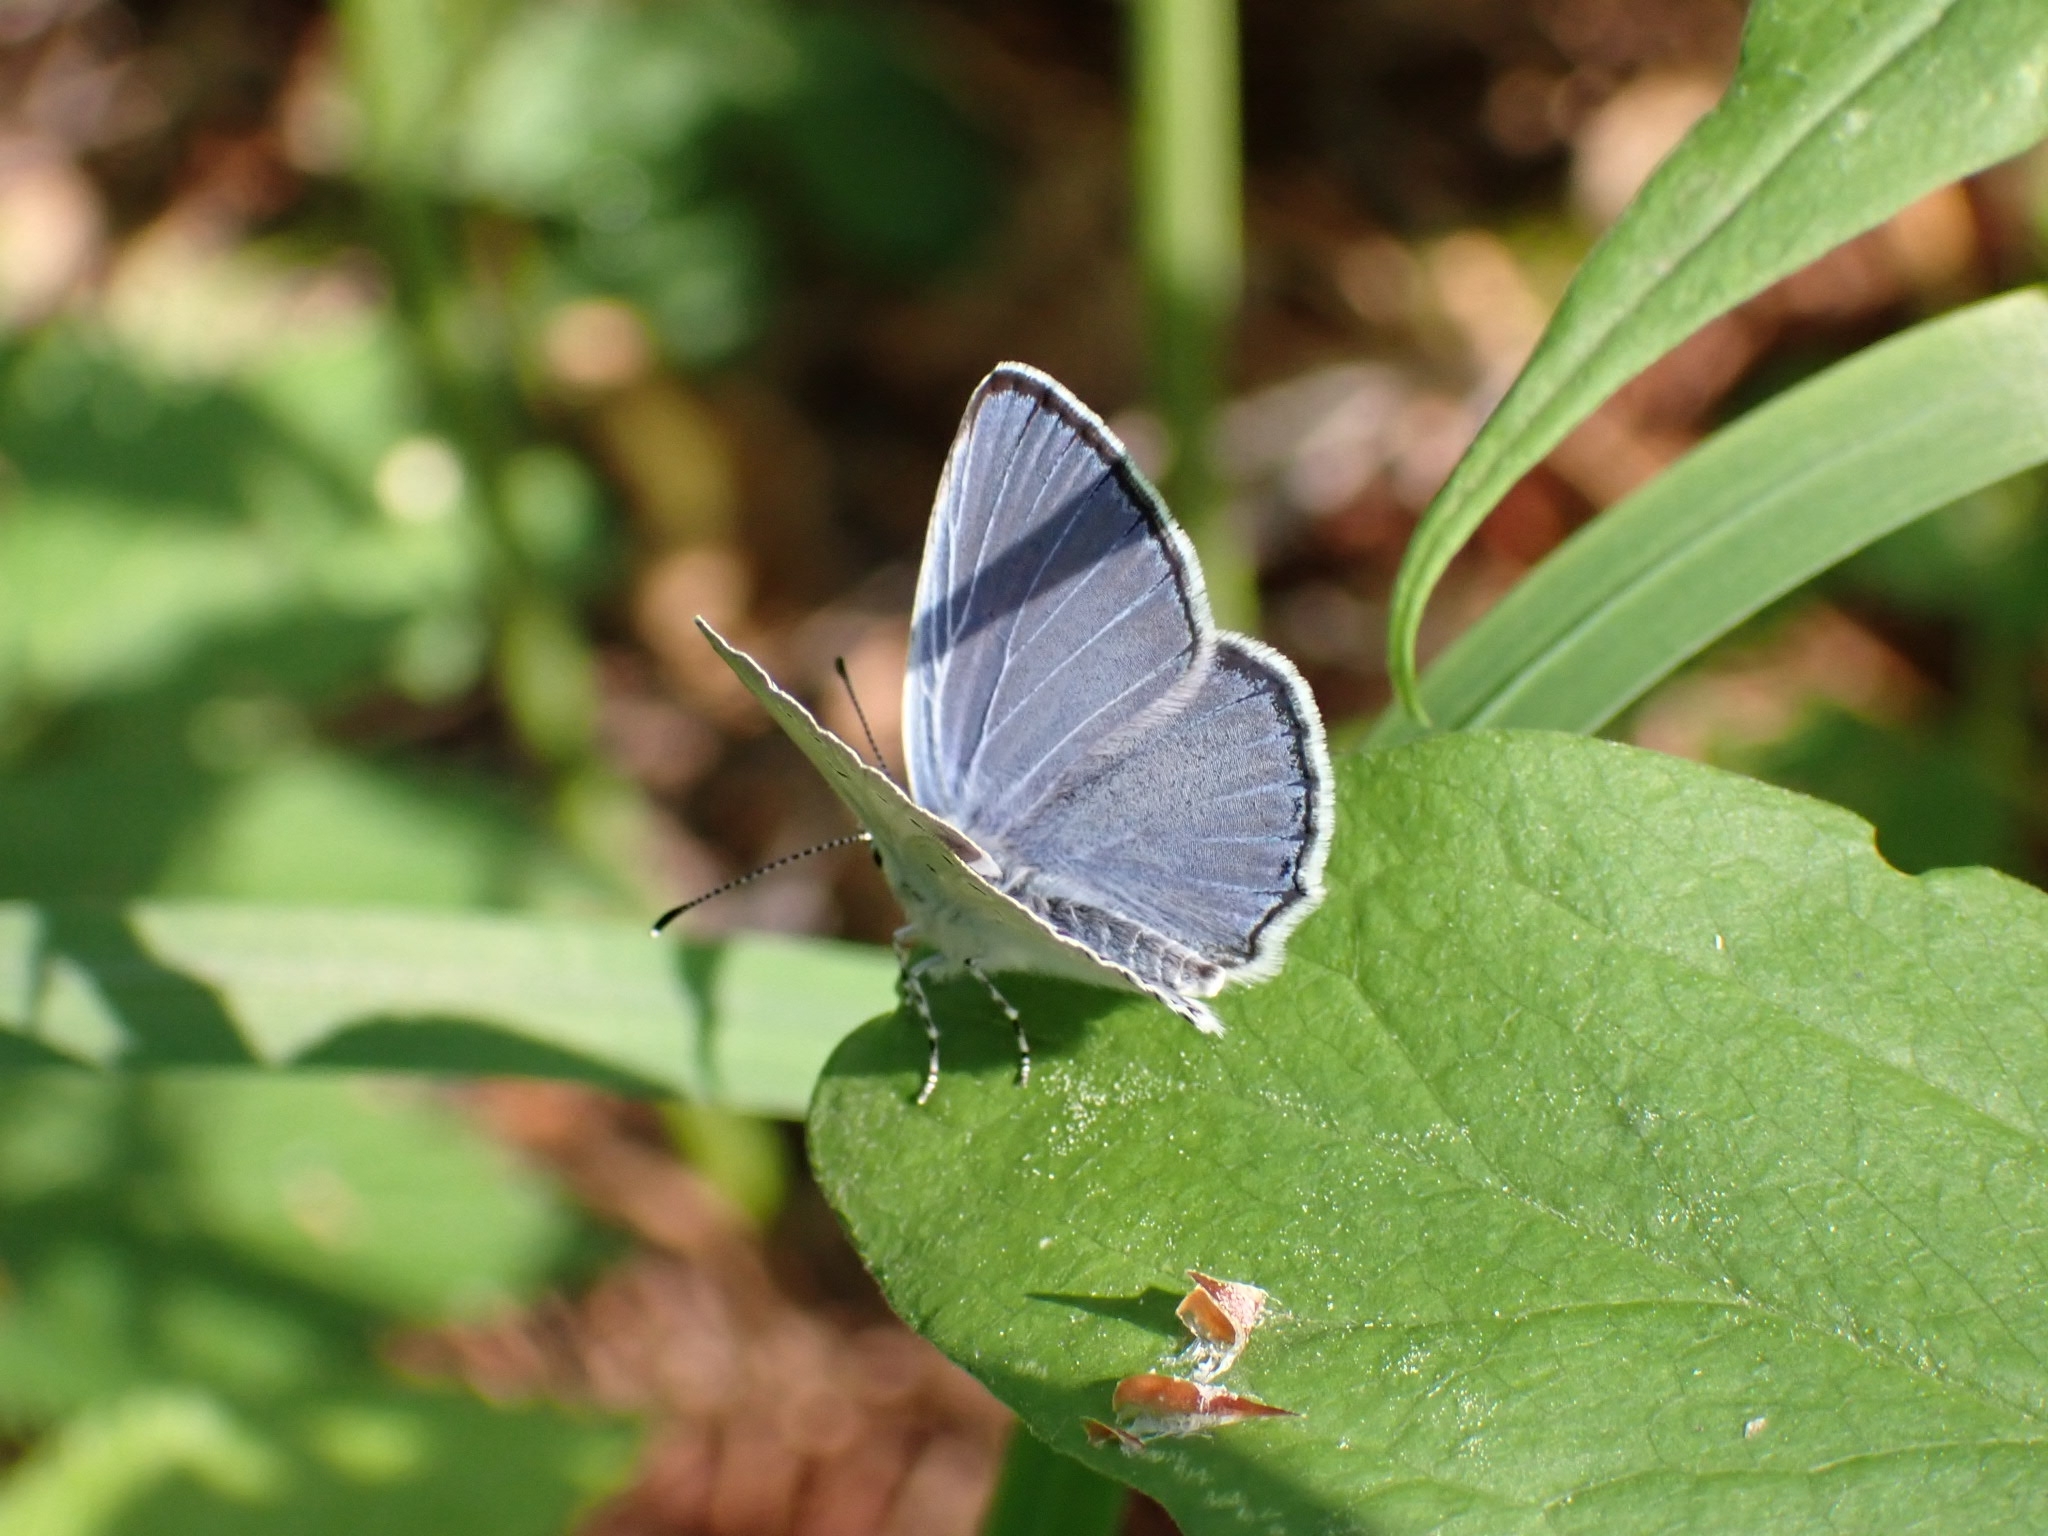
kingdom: Animalia
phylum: Arthropoda
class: Insecta
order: Lepidoptera
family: Lycaenidae
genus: Elkalyce
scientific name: Elkalyce alcetas
